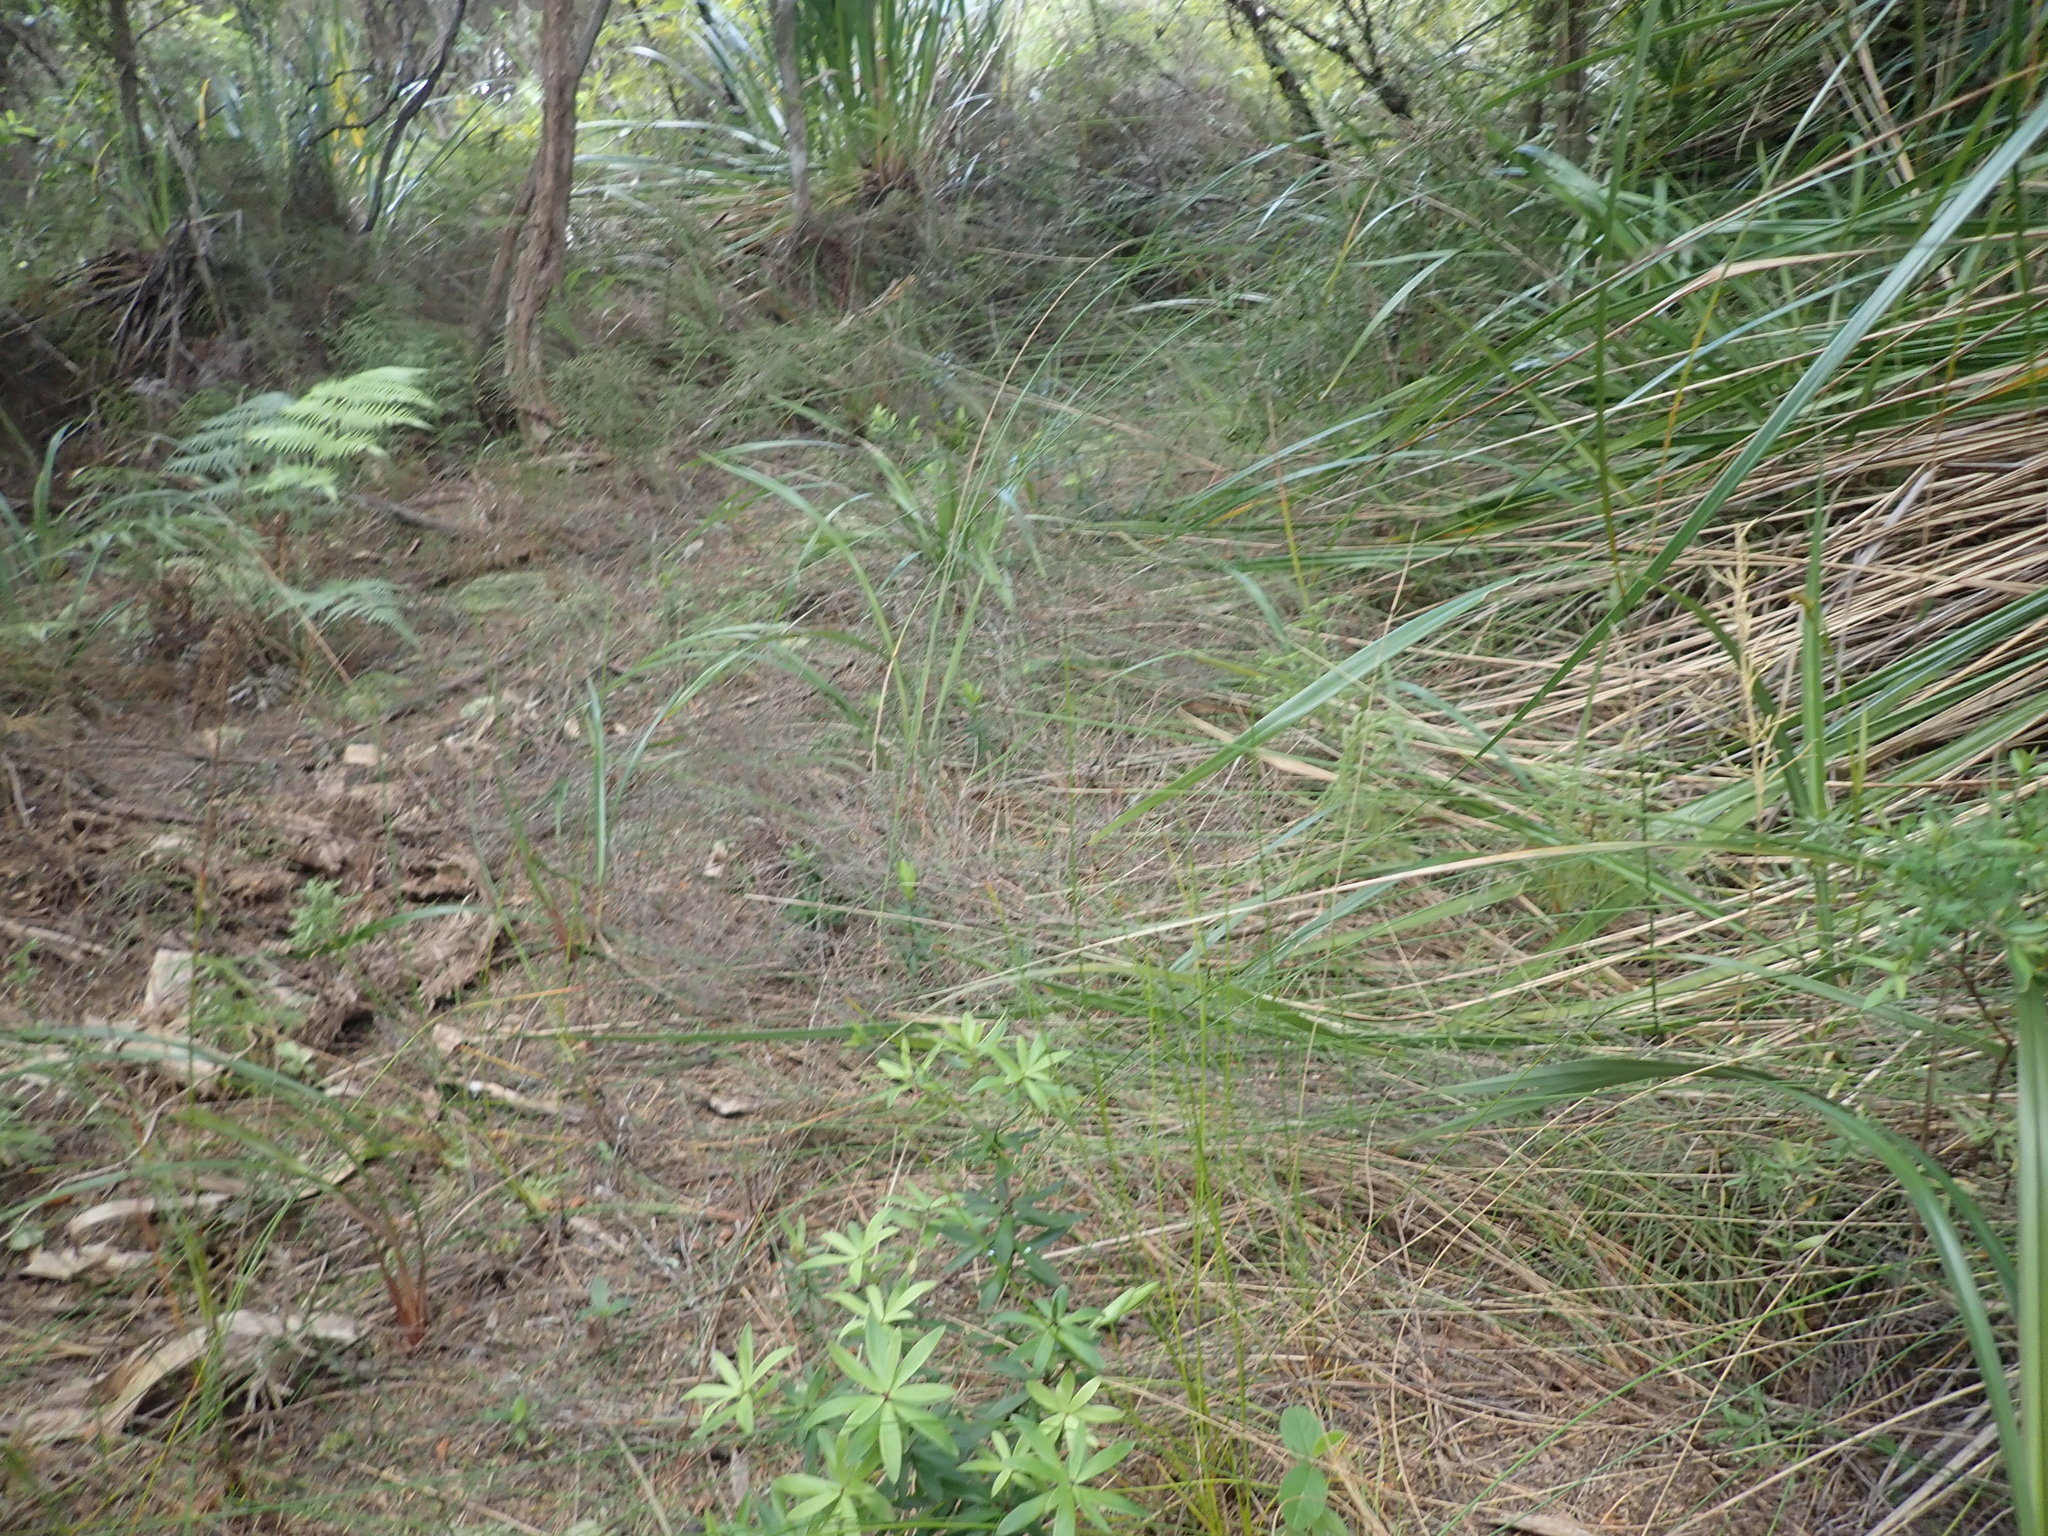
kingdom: Plantae
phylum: Tracheophyta
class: Magnoliopsida
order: Ericales
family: Ericaceae
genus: Leucopogon
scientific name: Leucopogon fasciculatus
